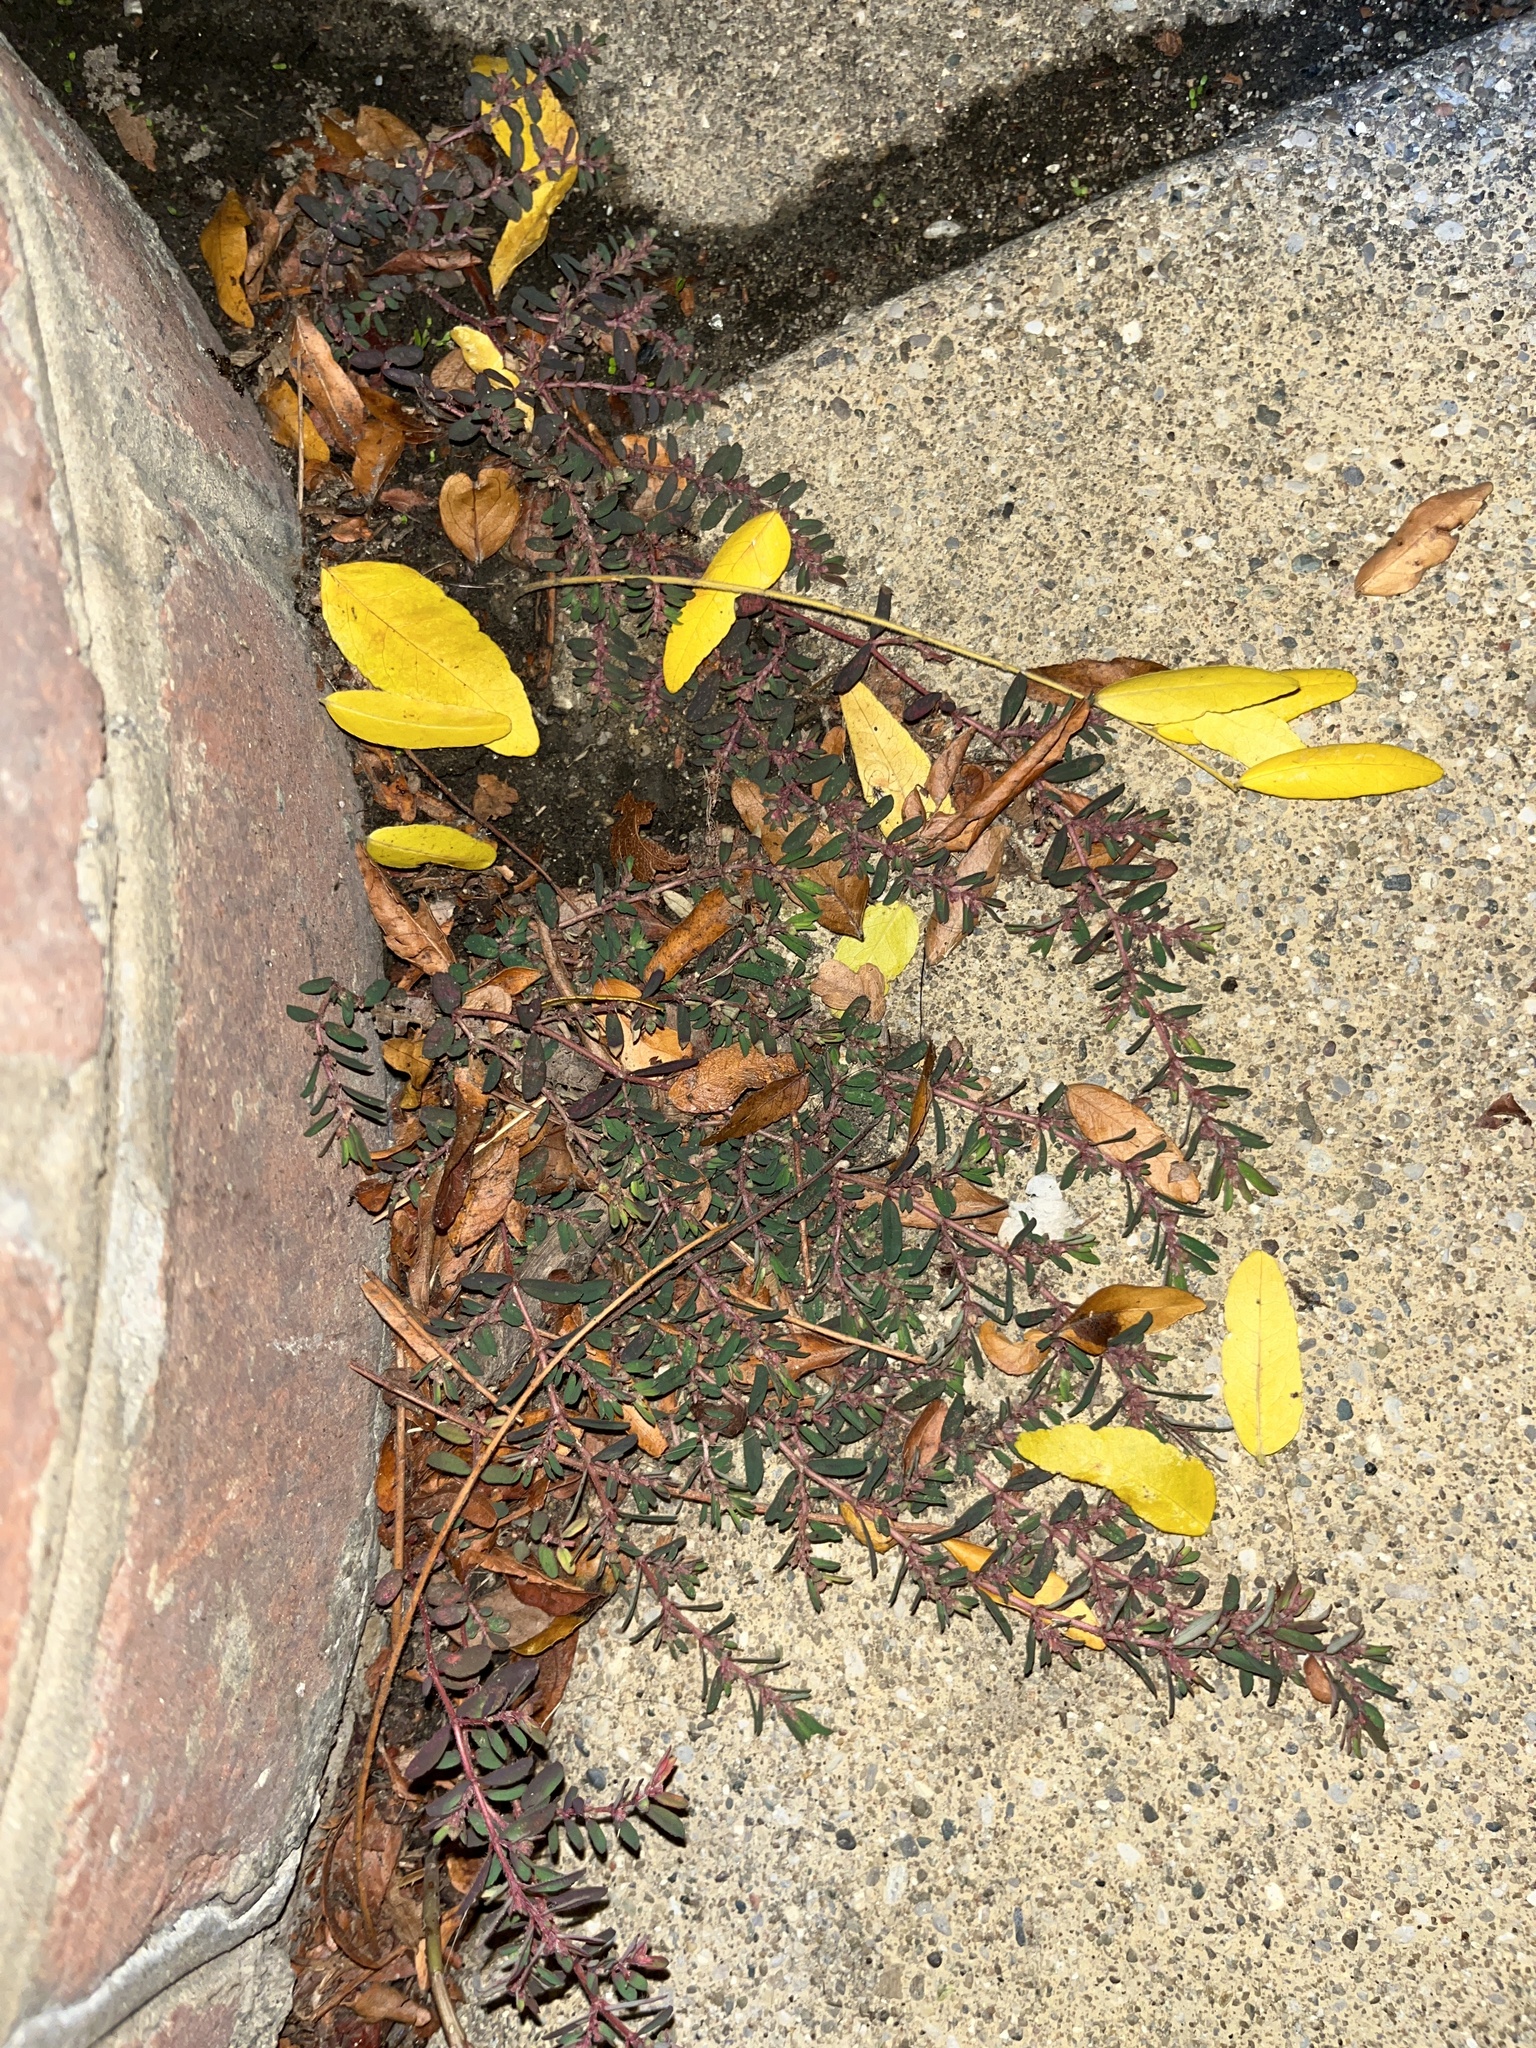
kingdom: Plantae
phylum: Tracheophyta
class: Magnoliopsida
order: Malpighiales
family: Euphorbiaceae
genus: Euphorbia
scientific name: Euphorbia maculata
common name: Spotted spurge
